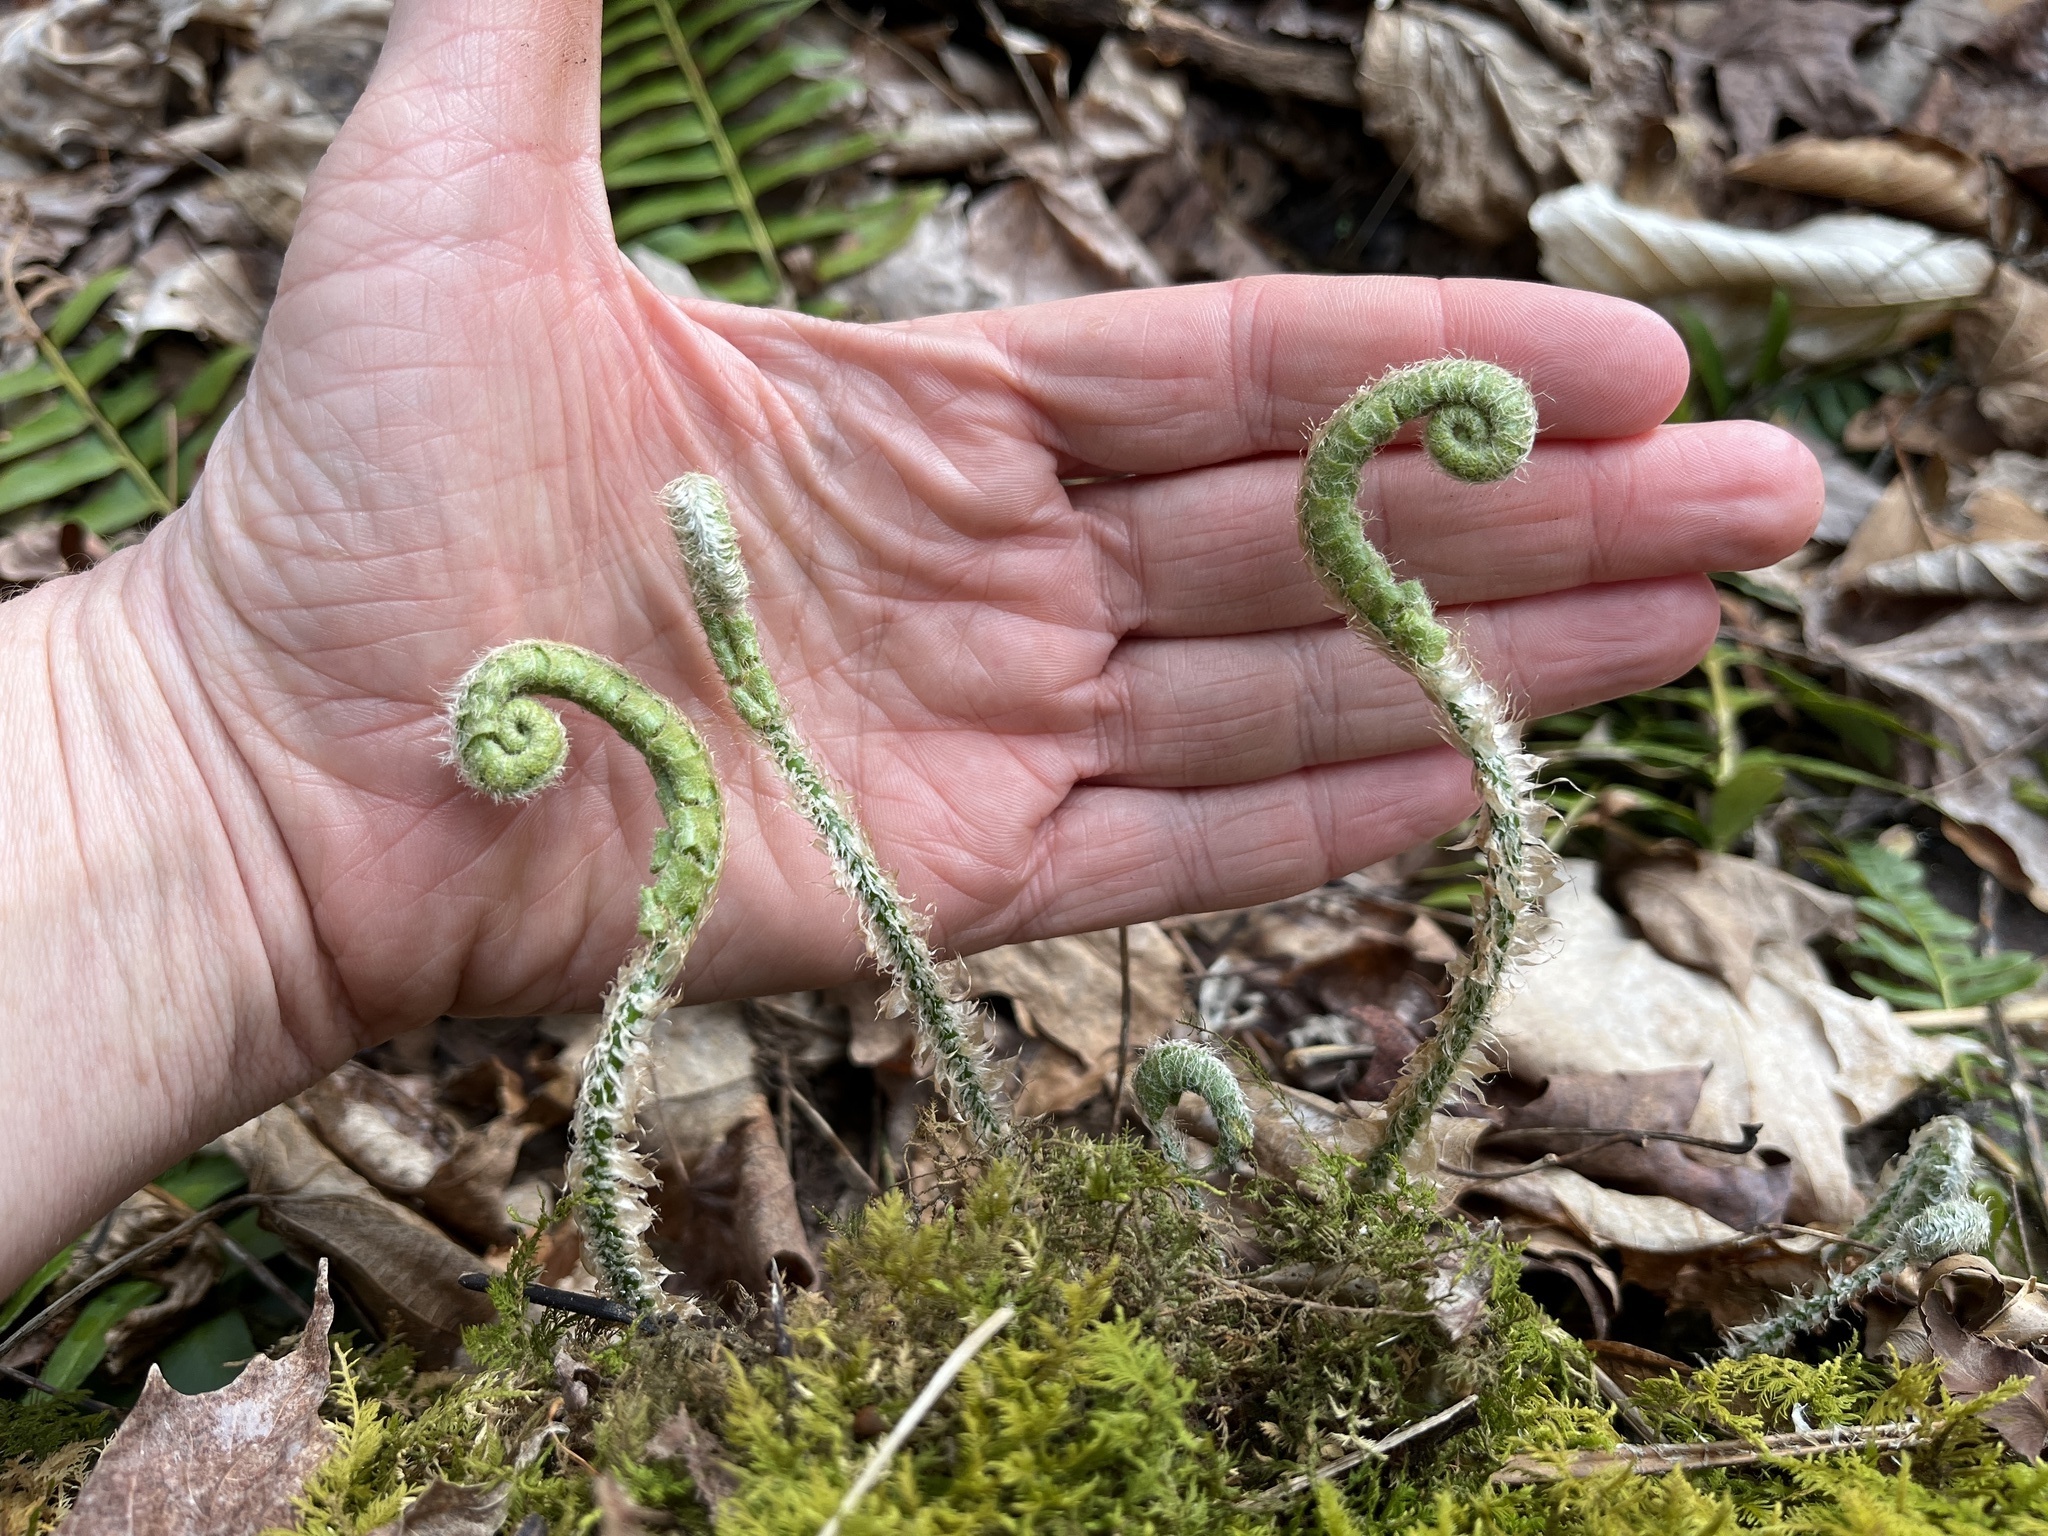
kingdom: Plantae
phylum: Tracheophyta
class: Polypodiopsida
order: Polypodiales
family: Dryopteridaceae
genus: Polystichum
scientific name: Polystichum acrostichoides
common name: Christmas fern
